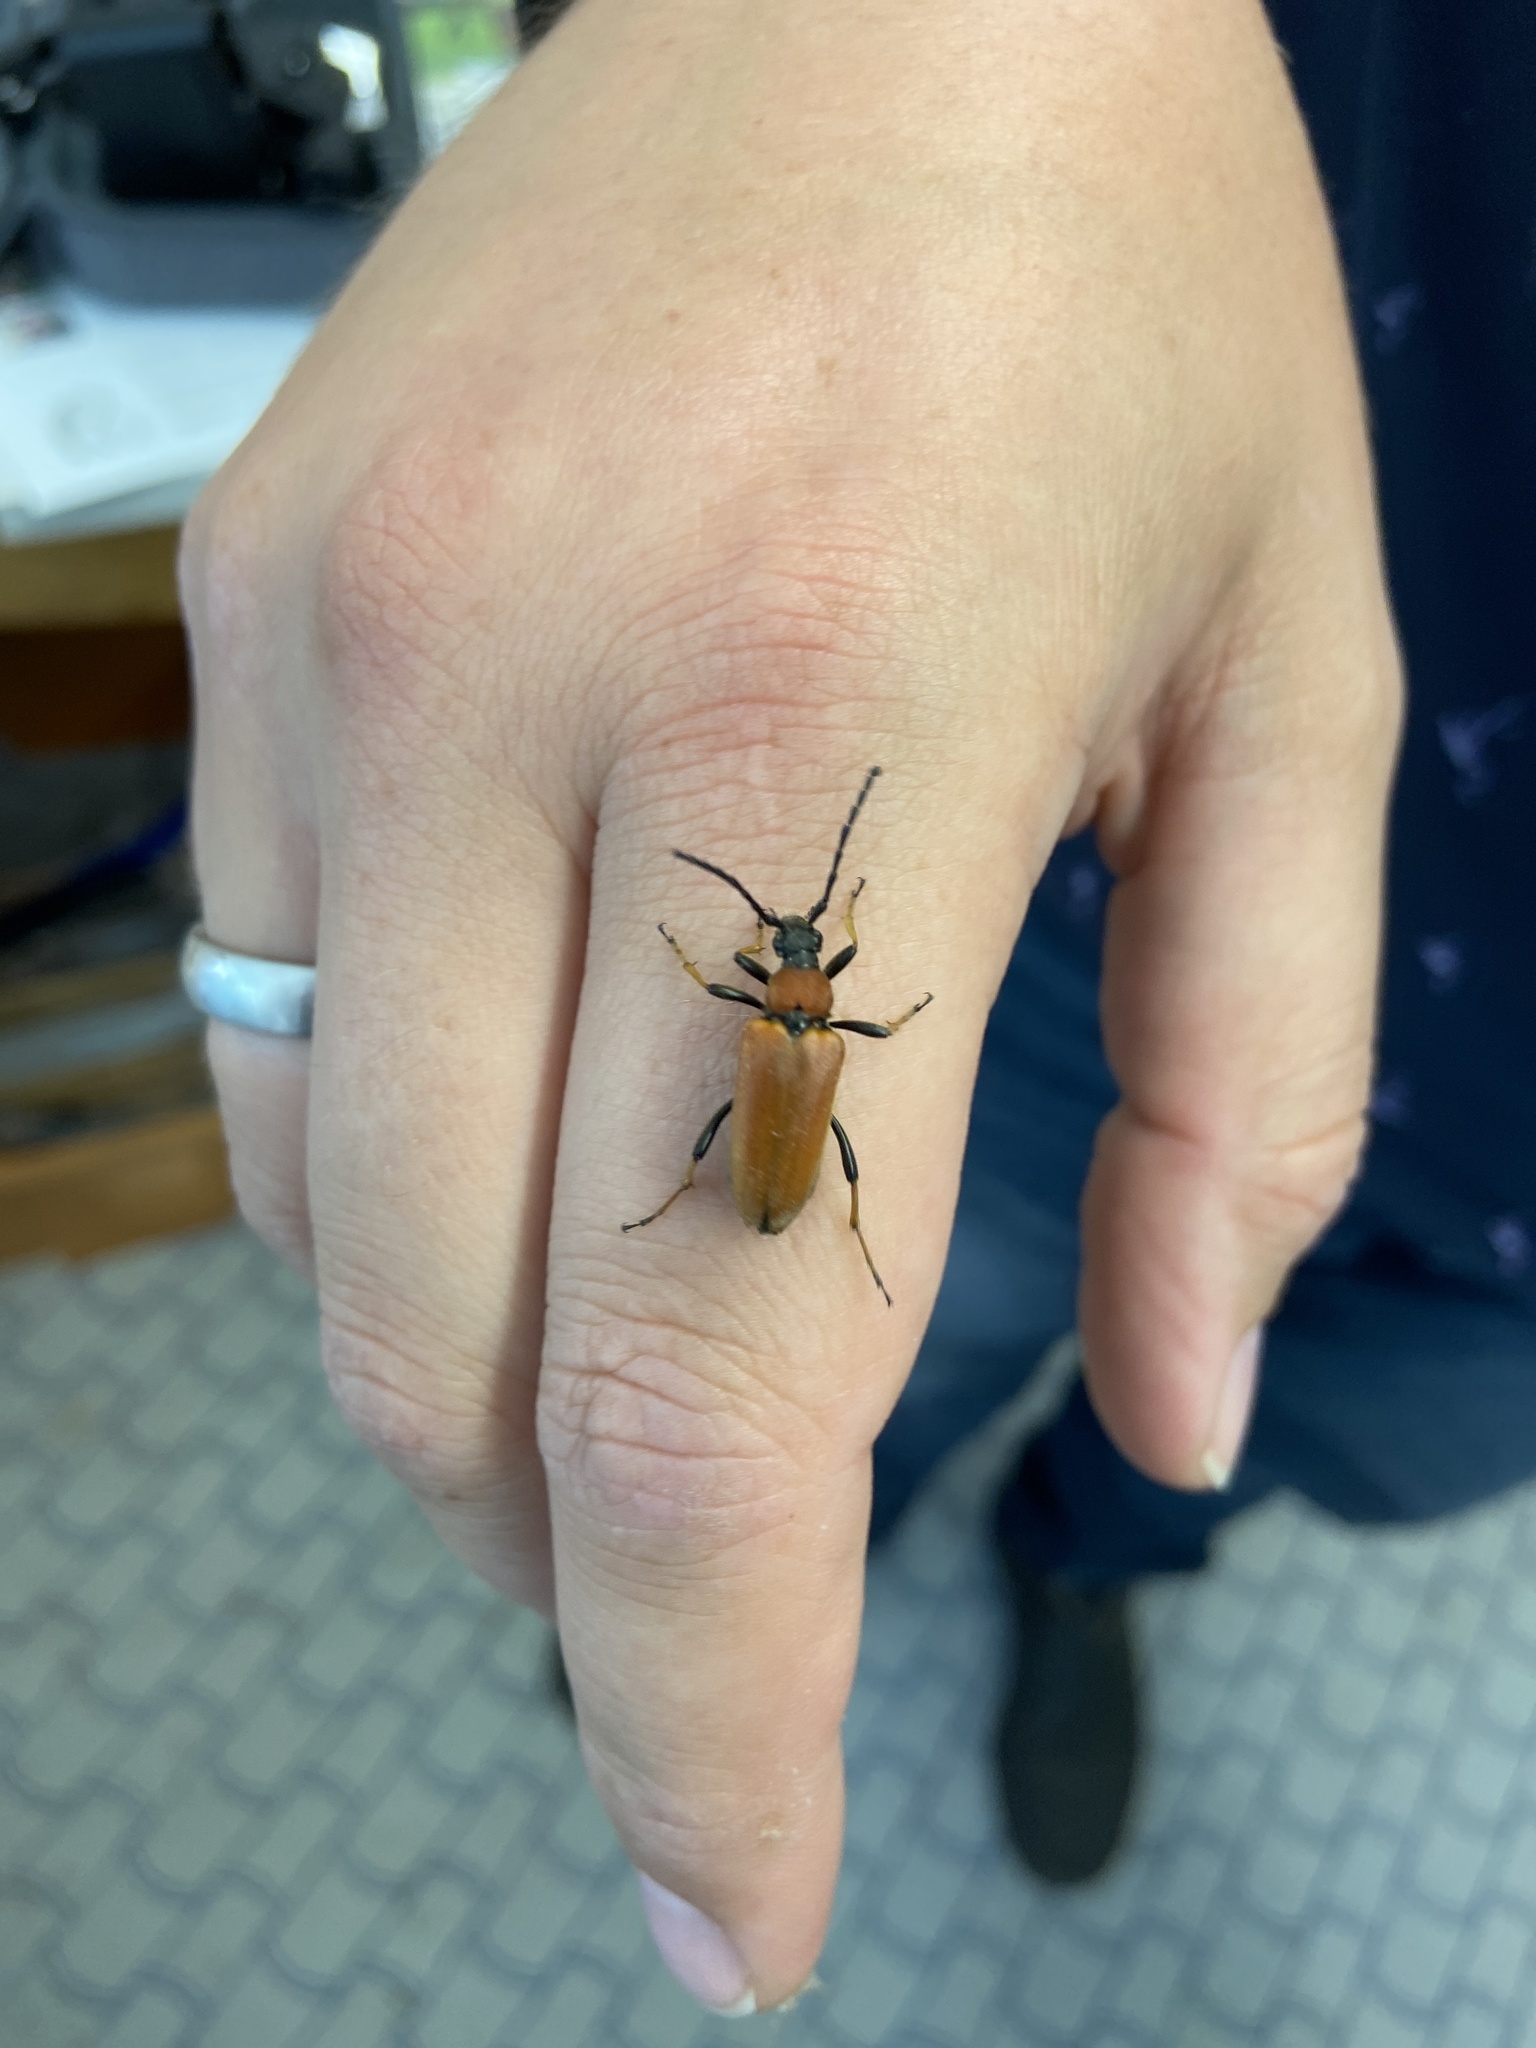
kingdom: Animalia
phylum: Arthropoda
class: Insecta
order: Coleoptera
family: Cerambycidae
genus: Stictoleptura
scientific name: Stictoleptura rubra
